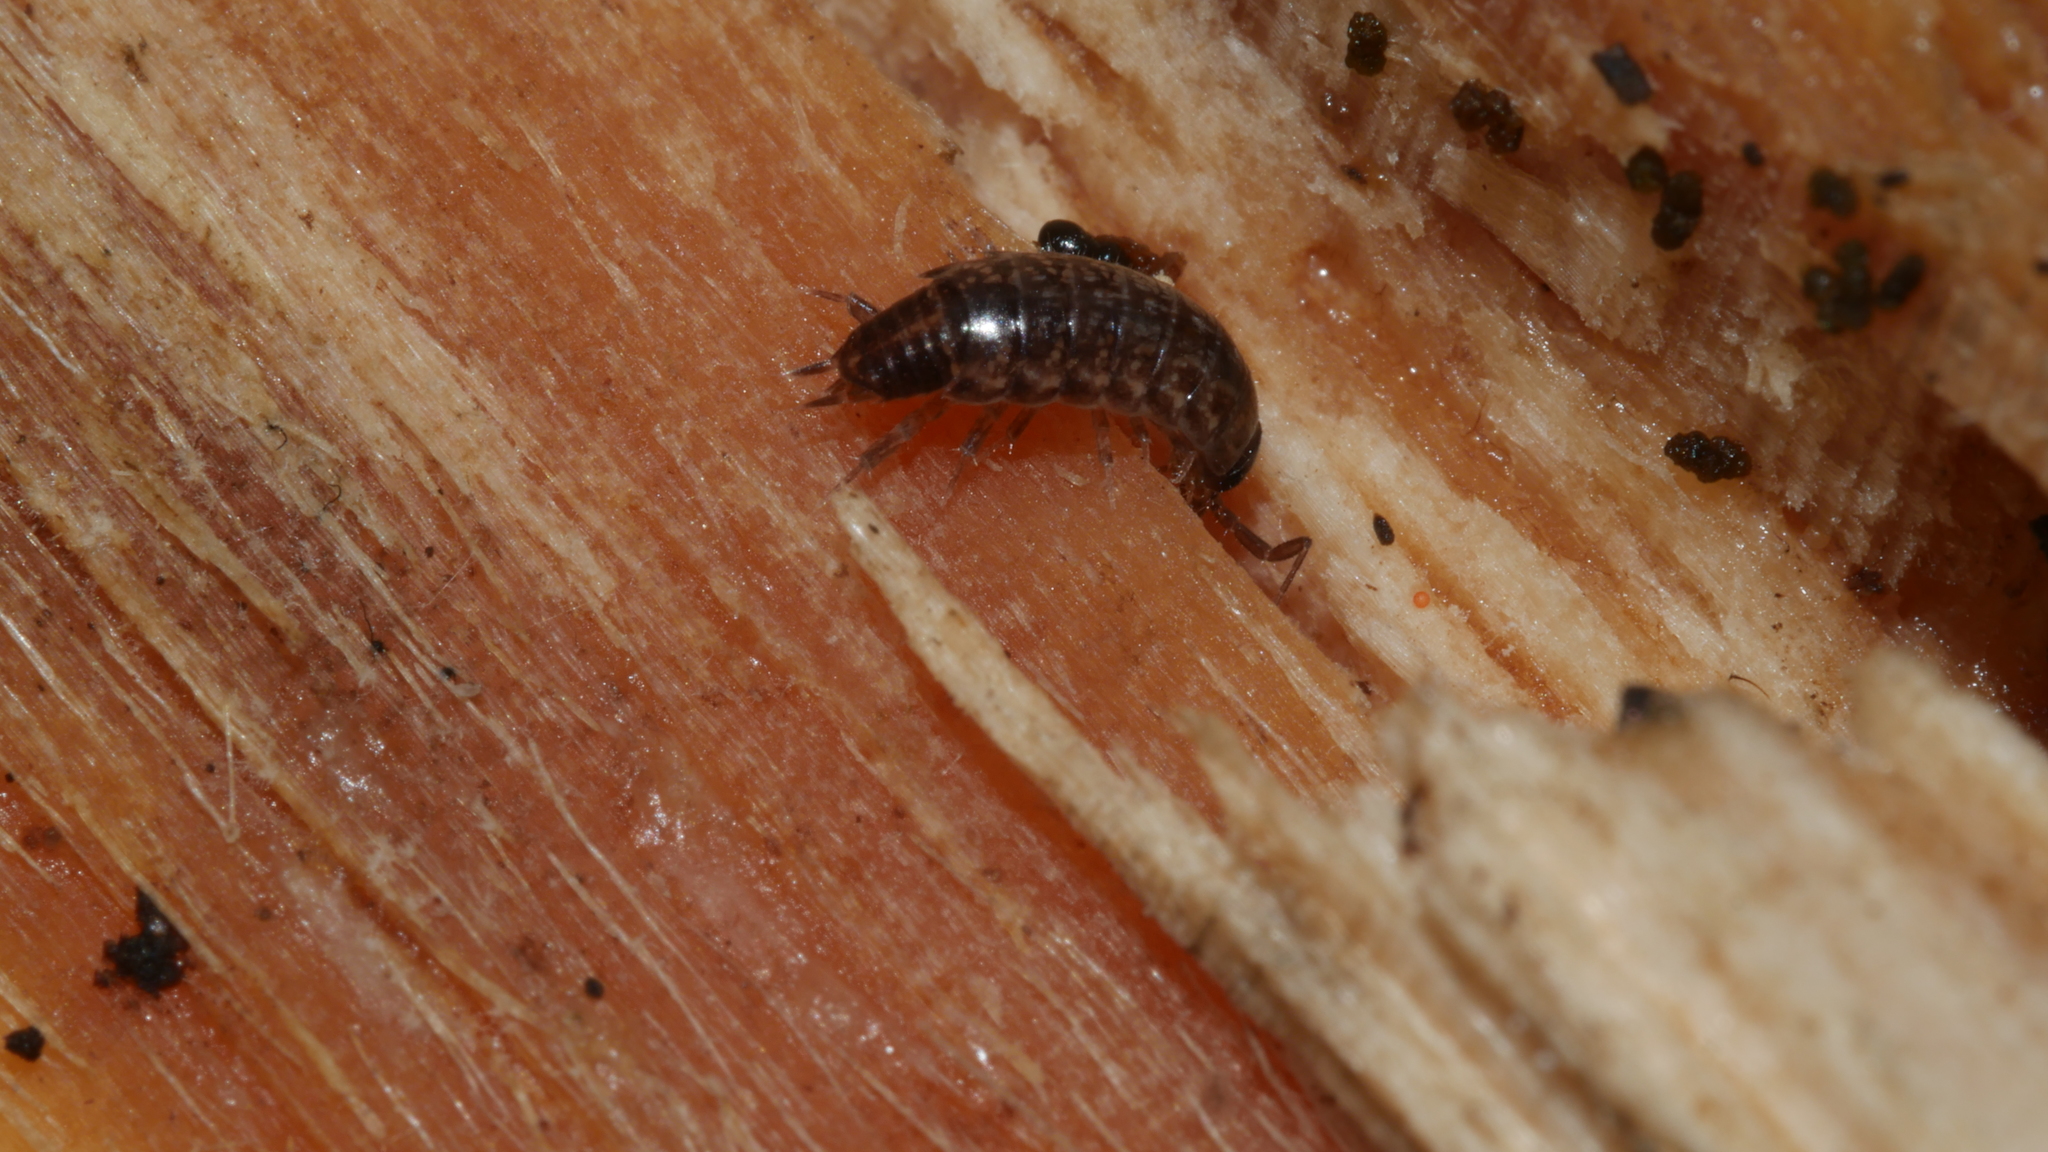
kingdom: Animalia
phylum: Arthropoda
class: Malacostraca
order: Isopoda
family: Philosciidae
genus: Chaetophiloscia
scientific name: Chaetophiloscia sicula
